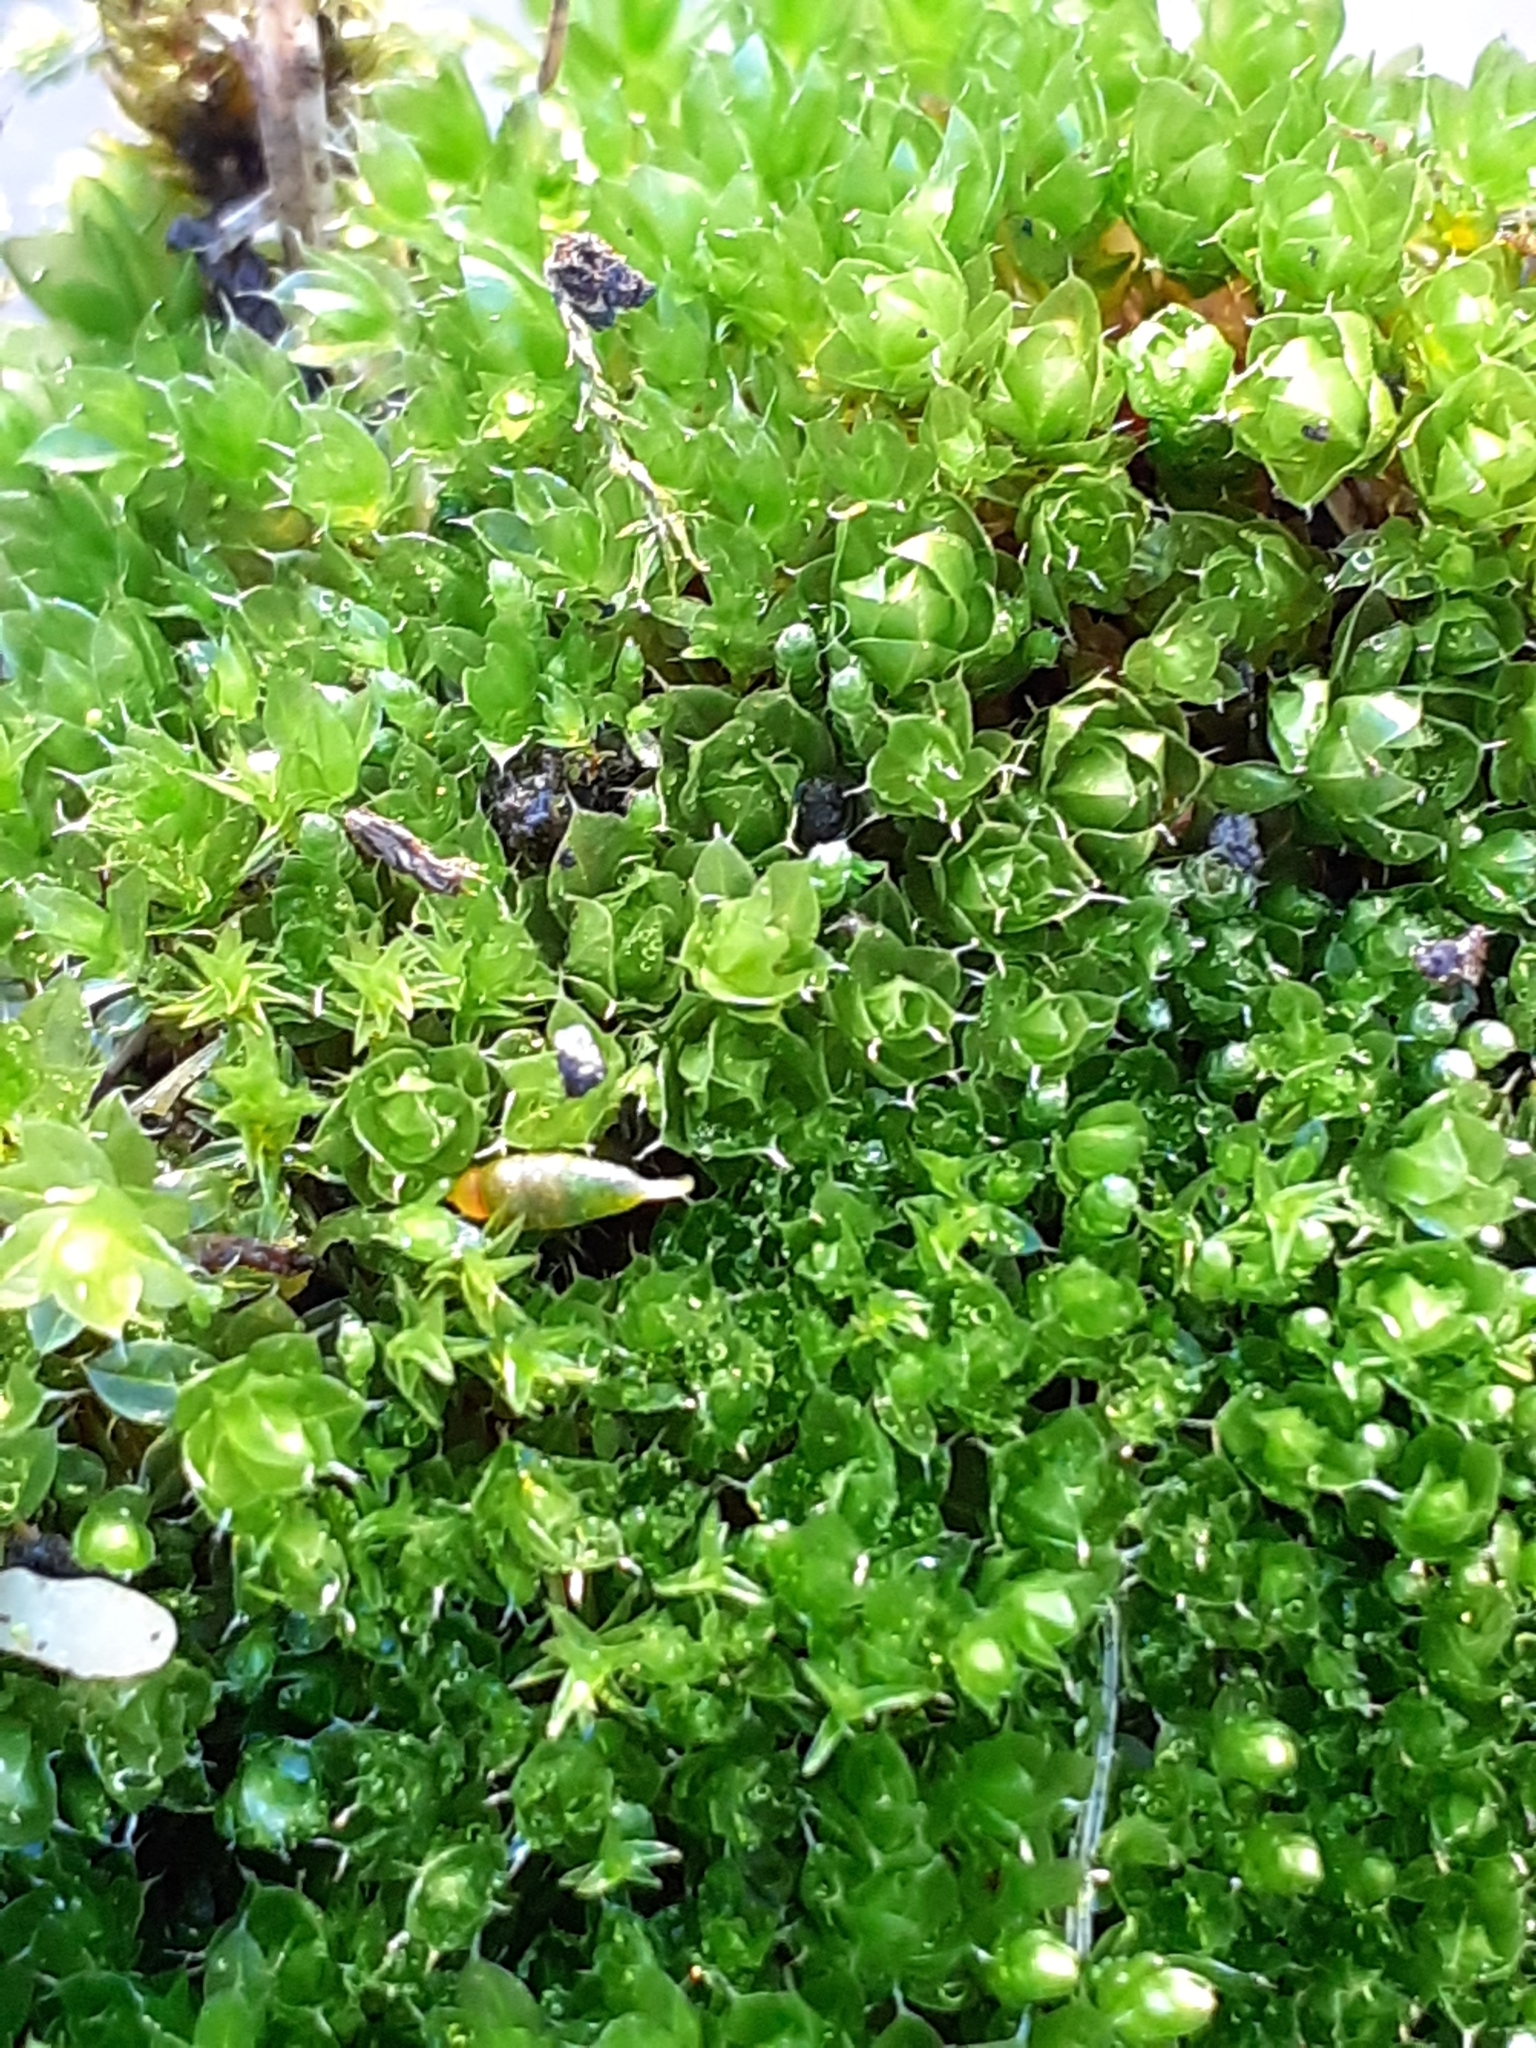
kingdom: Plantae
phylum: Bryophyta
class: Bryopsida
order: Bryales
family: Bryaceae
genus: Rosulabryum
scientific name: Rosulabryum capillare
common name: Capillary thread-moss
